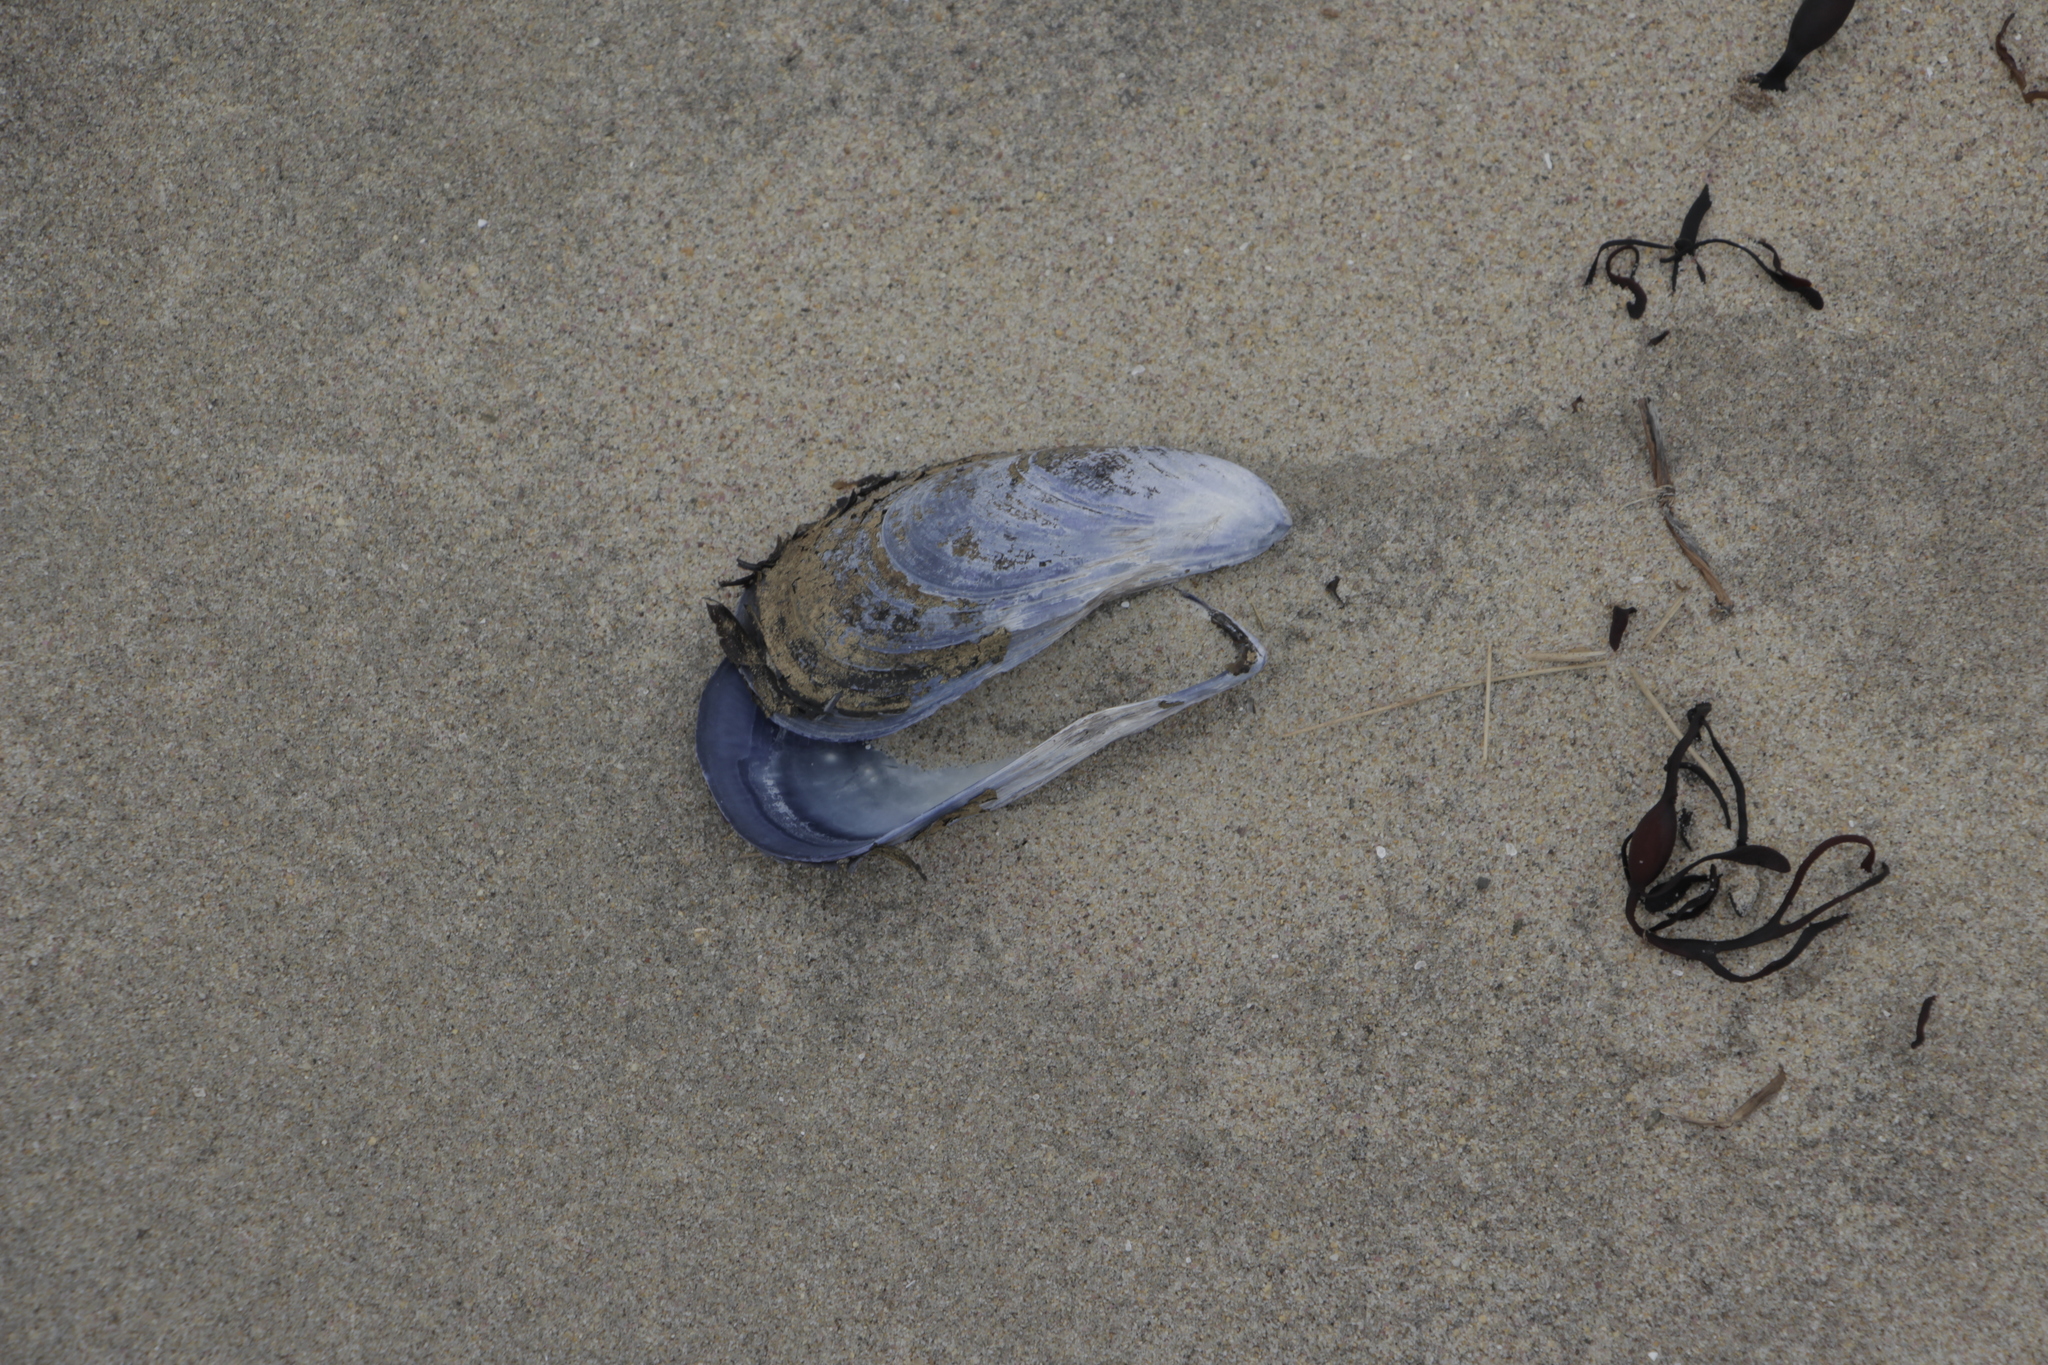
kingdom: Animalia
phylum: Mollusca
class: Bivalvia
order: Mytilida
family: Mytilidae
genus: Mytilus
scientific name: Mytilus edulis
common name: Blue mussel
